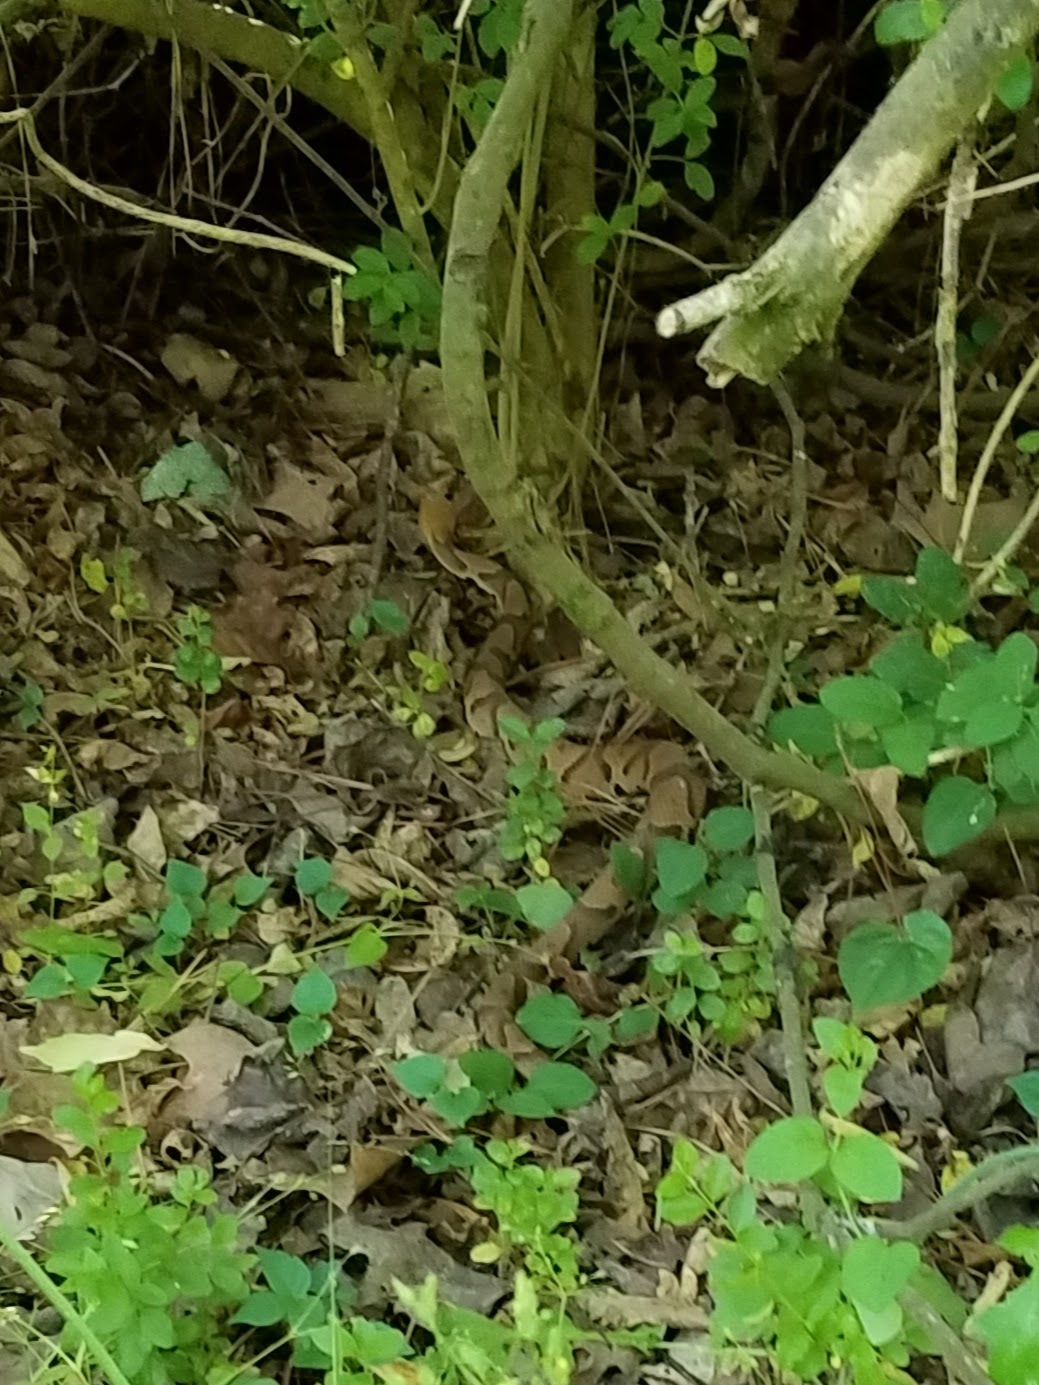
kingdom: Animalia
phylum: Chordata
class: Squamata
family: Viperidae
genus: Agkistrodon
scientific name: Agkistrodon contortrix
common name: Northern copperhead
